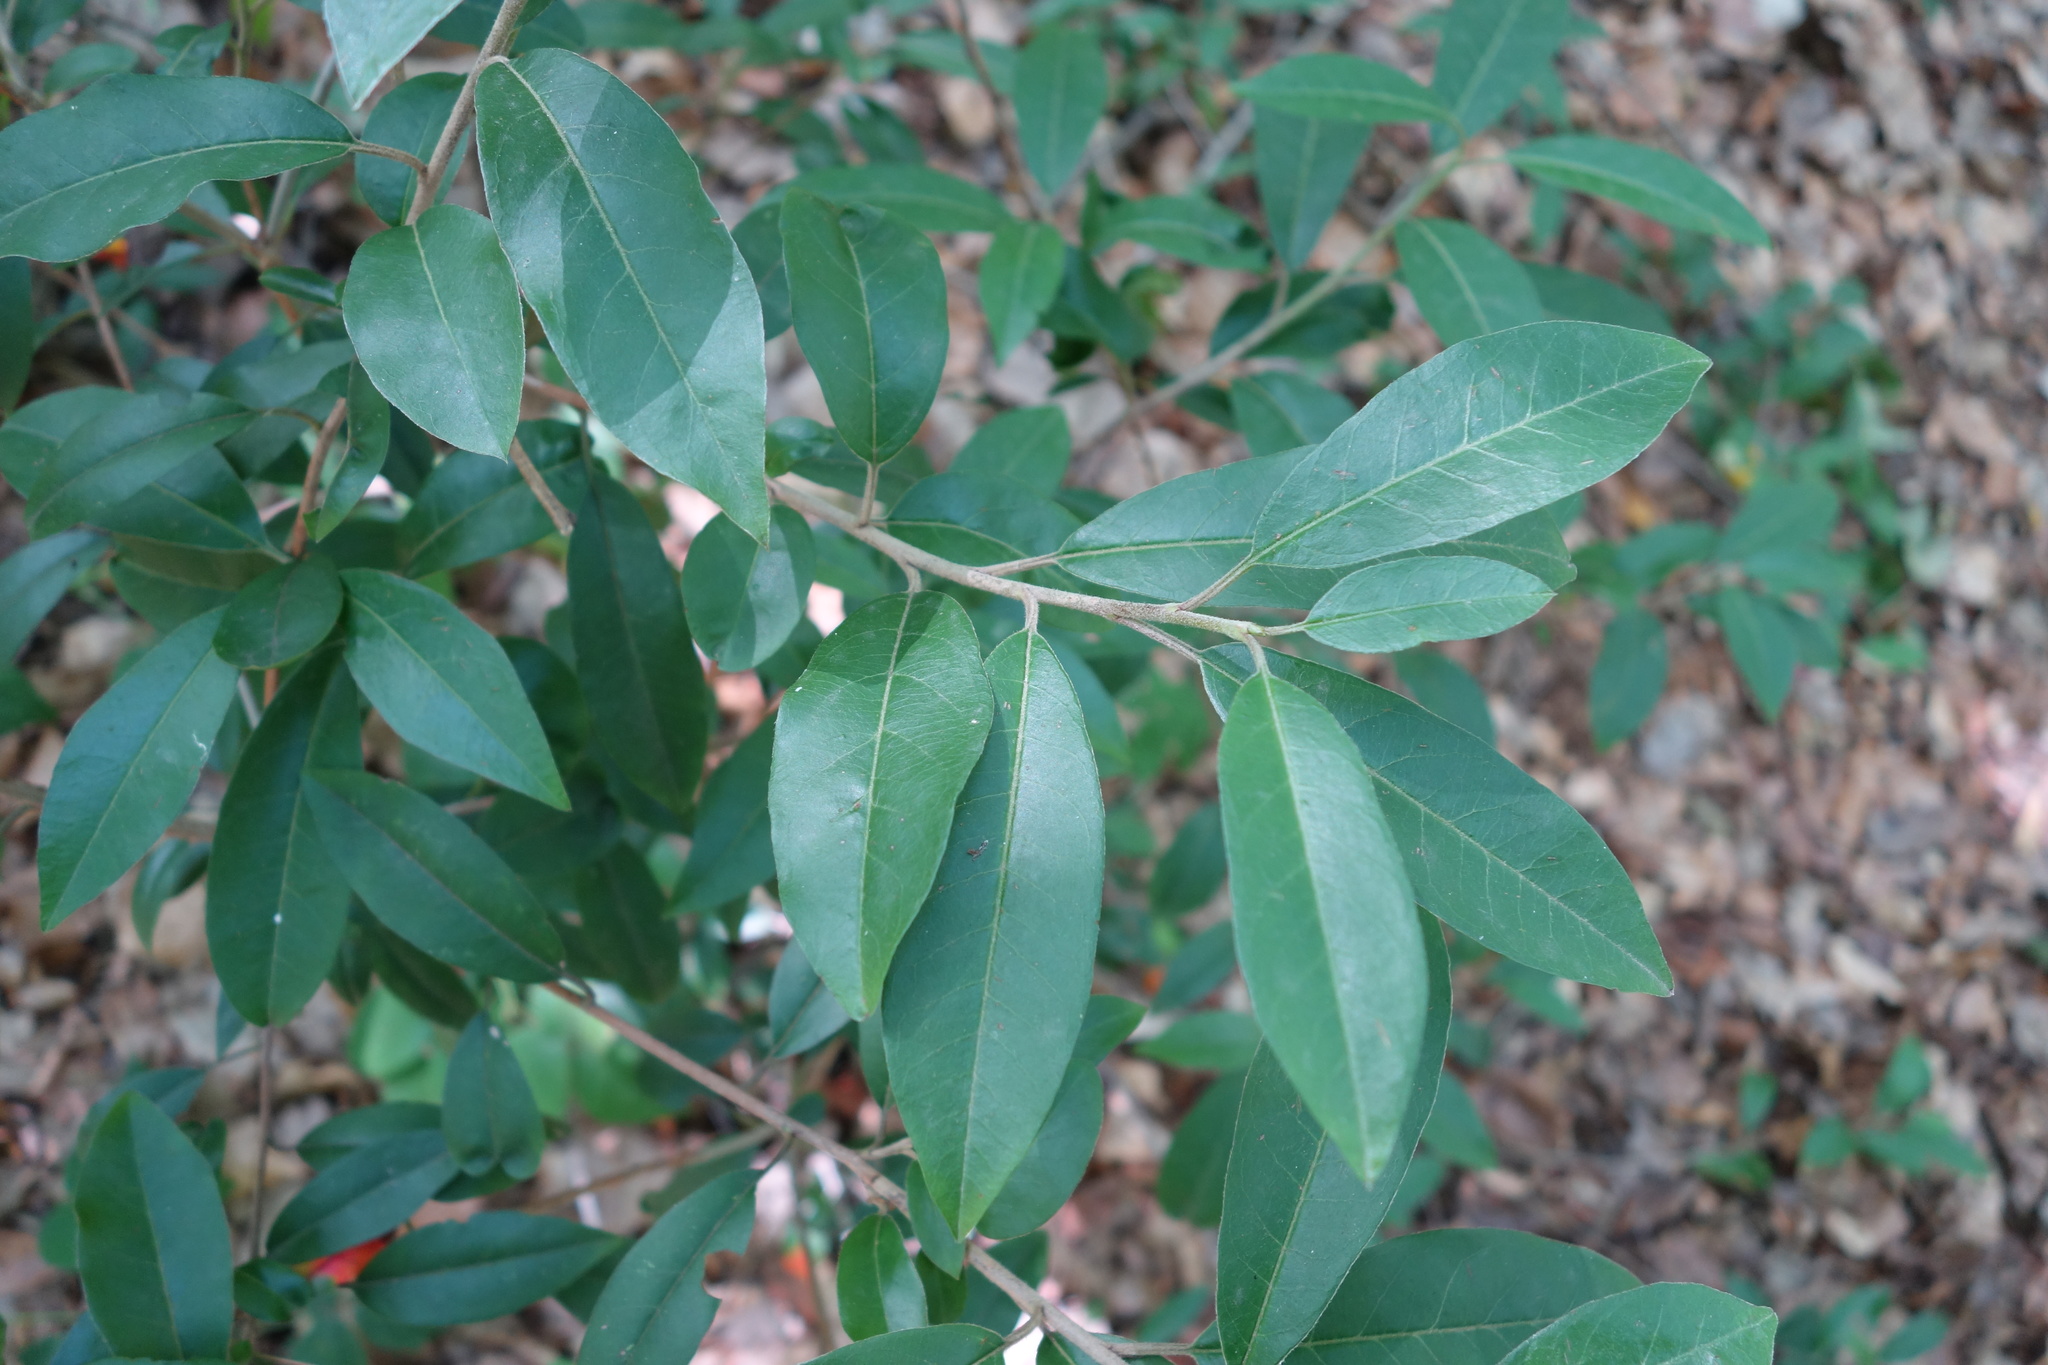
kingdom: Plantae
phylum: Tracheophyta
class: Magnoliopsida
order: Lamiales
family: Oleaceae
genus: Ligustrum
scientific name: Ligustrum vulgare
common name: Wild privet
